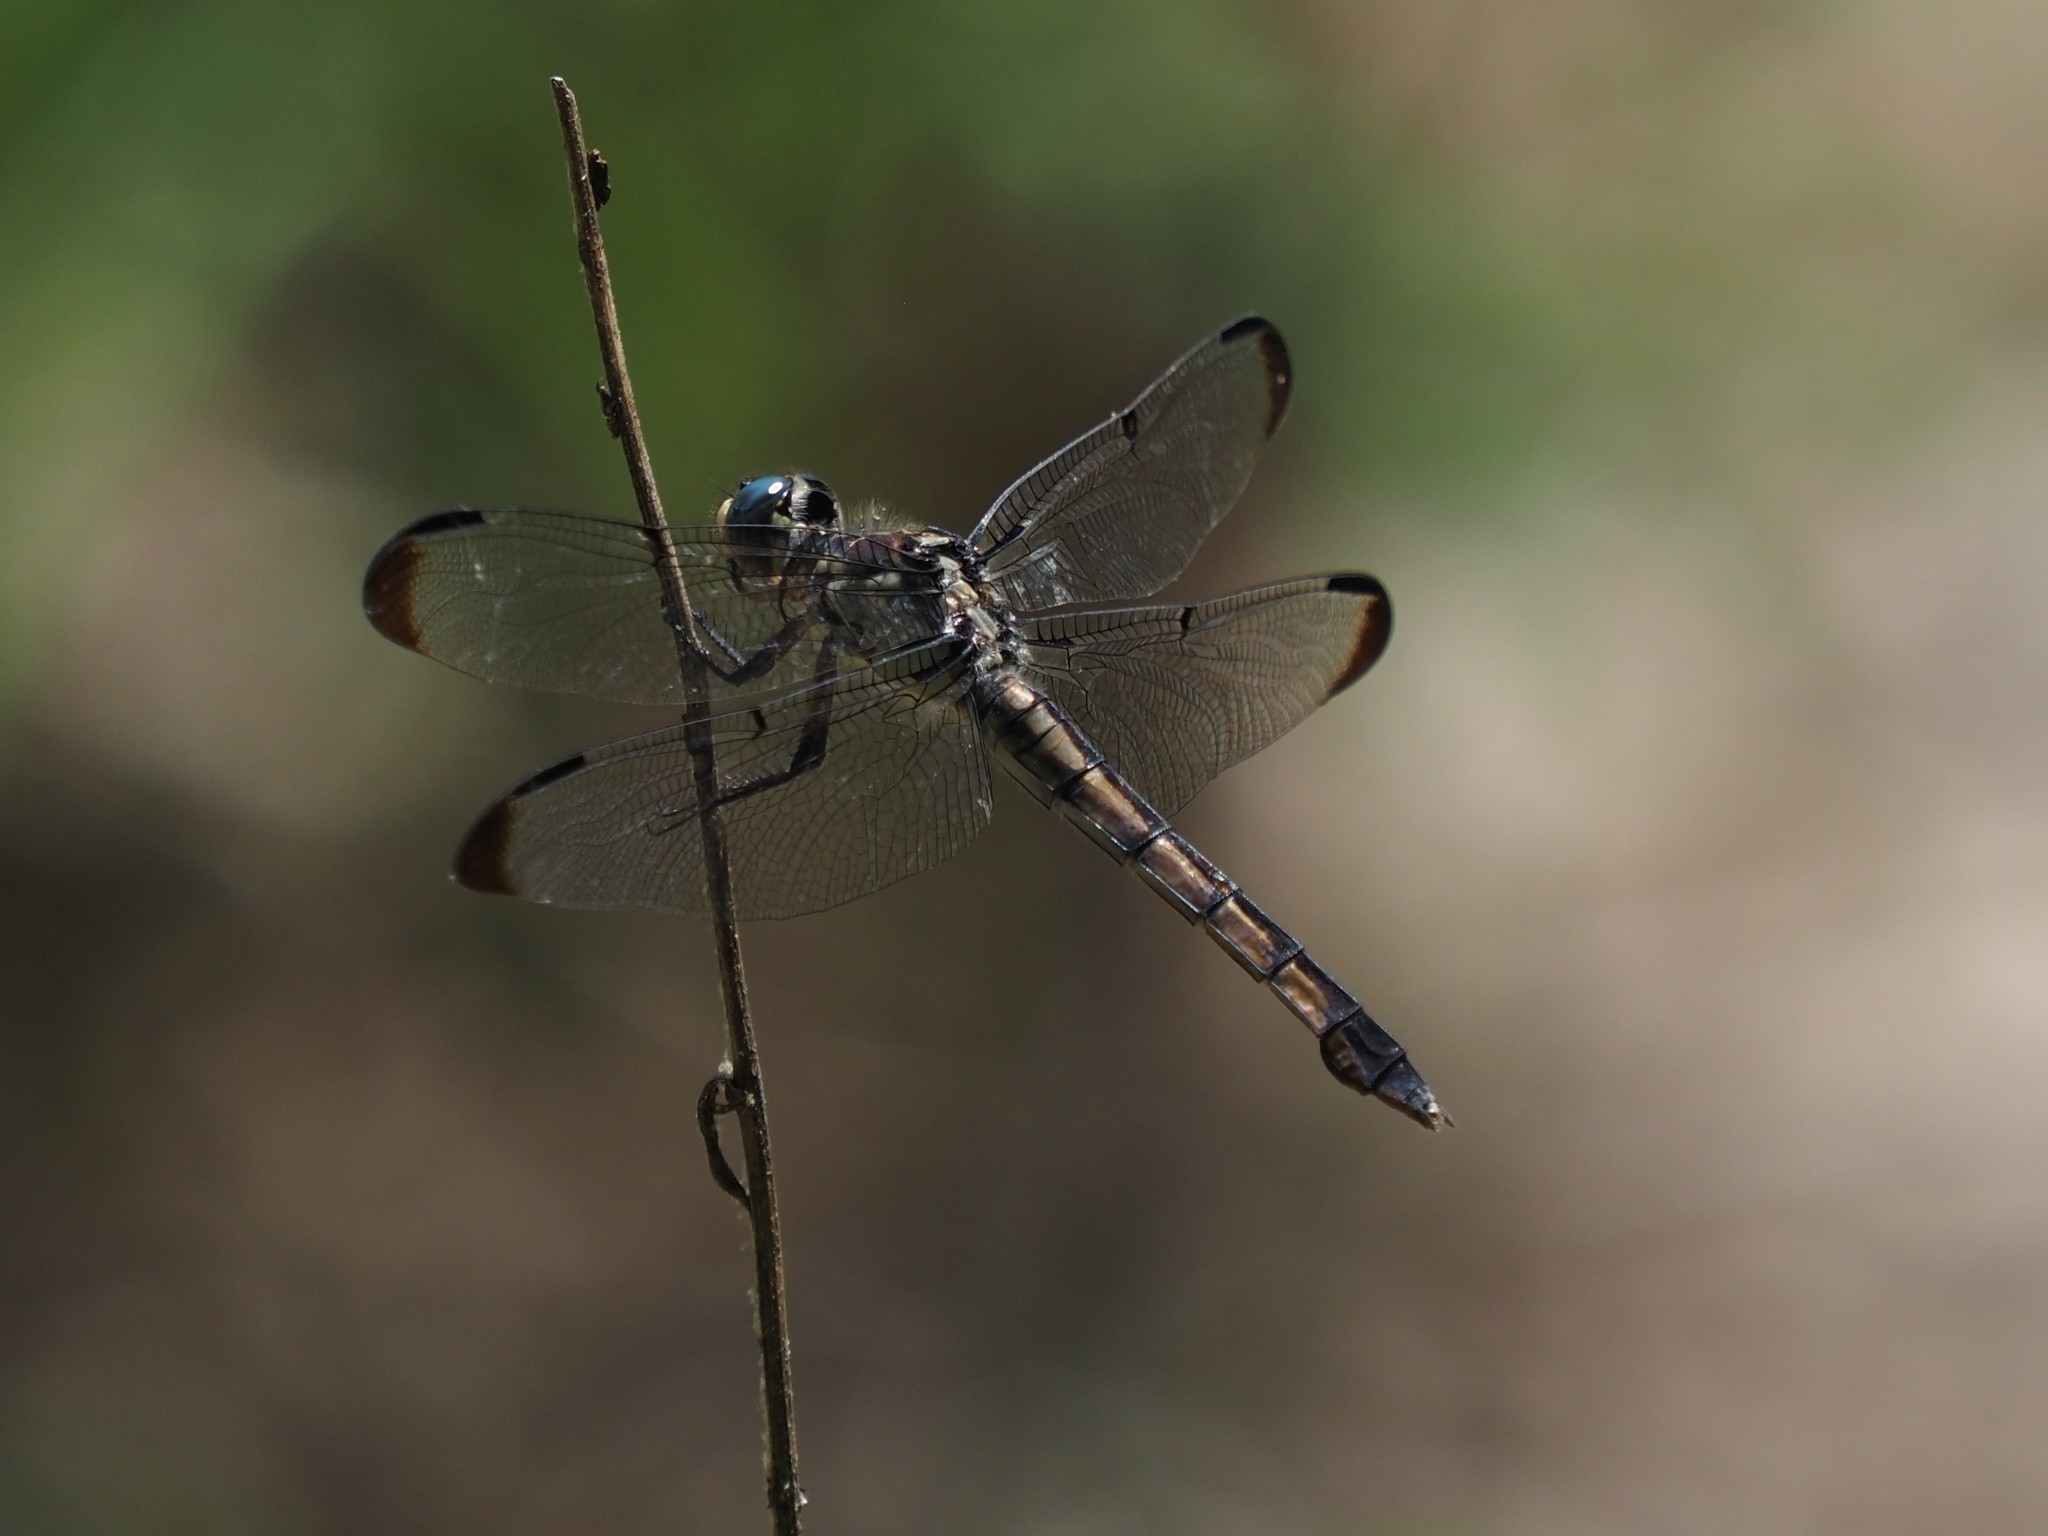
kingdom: Animalia
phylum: Arthropoda
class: Insecta
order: Odonata
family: Libellulidae
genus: Libellula
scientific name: Libellula vibrans
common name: Great blue skimmer
